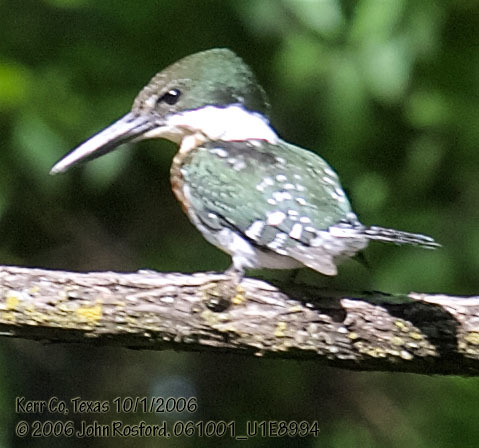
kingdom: Animalia
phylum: Chordata
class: Aves
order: Coraciiformes
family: Alcedinidae
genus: Chloroceryle
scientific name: Chloroceryle americana
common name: Green kingfisher
